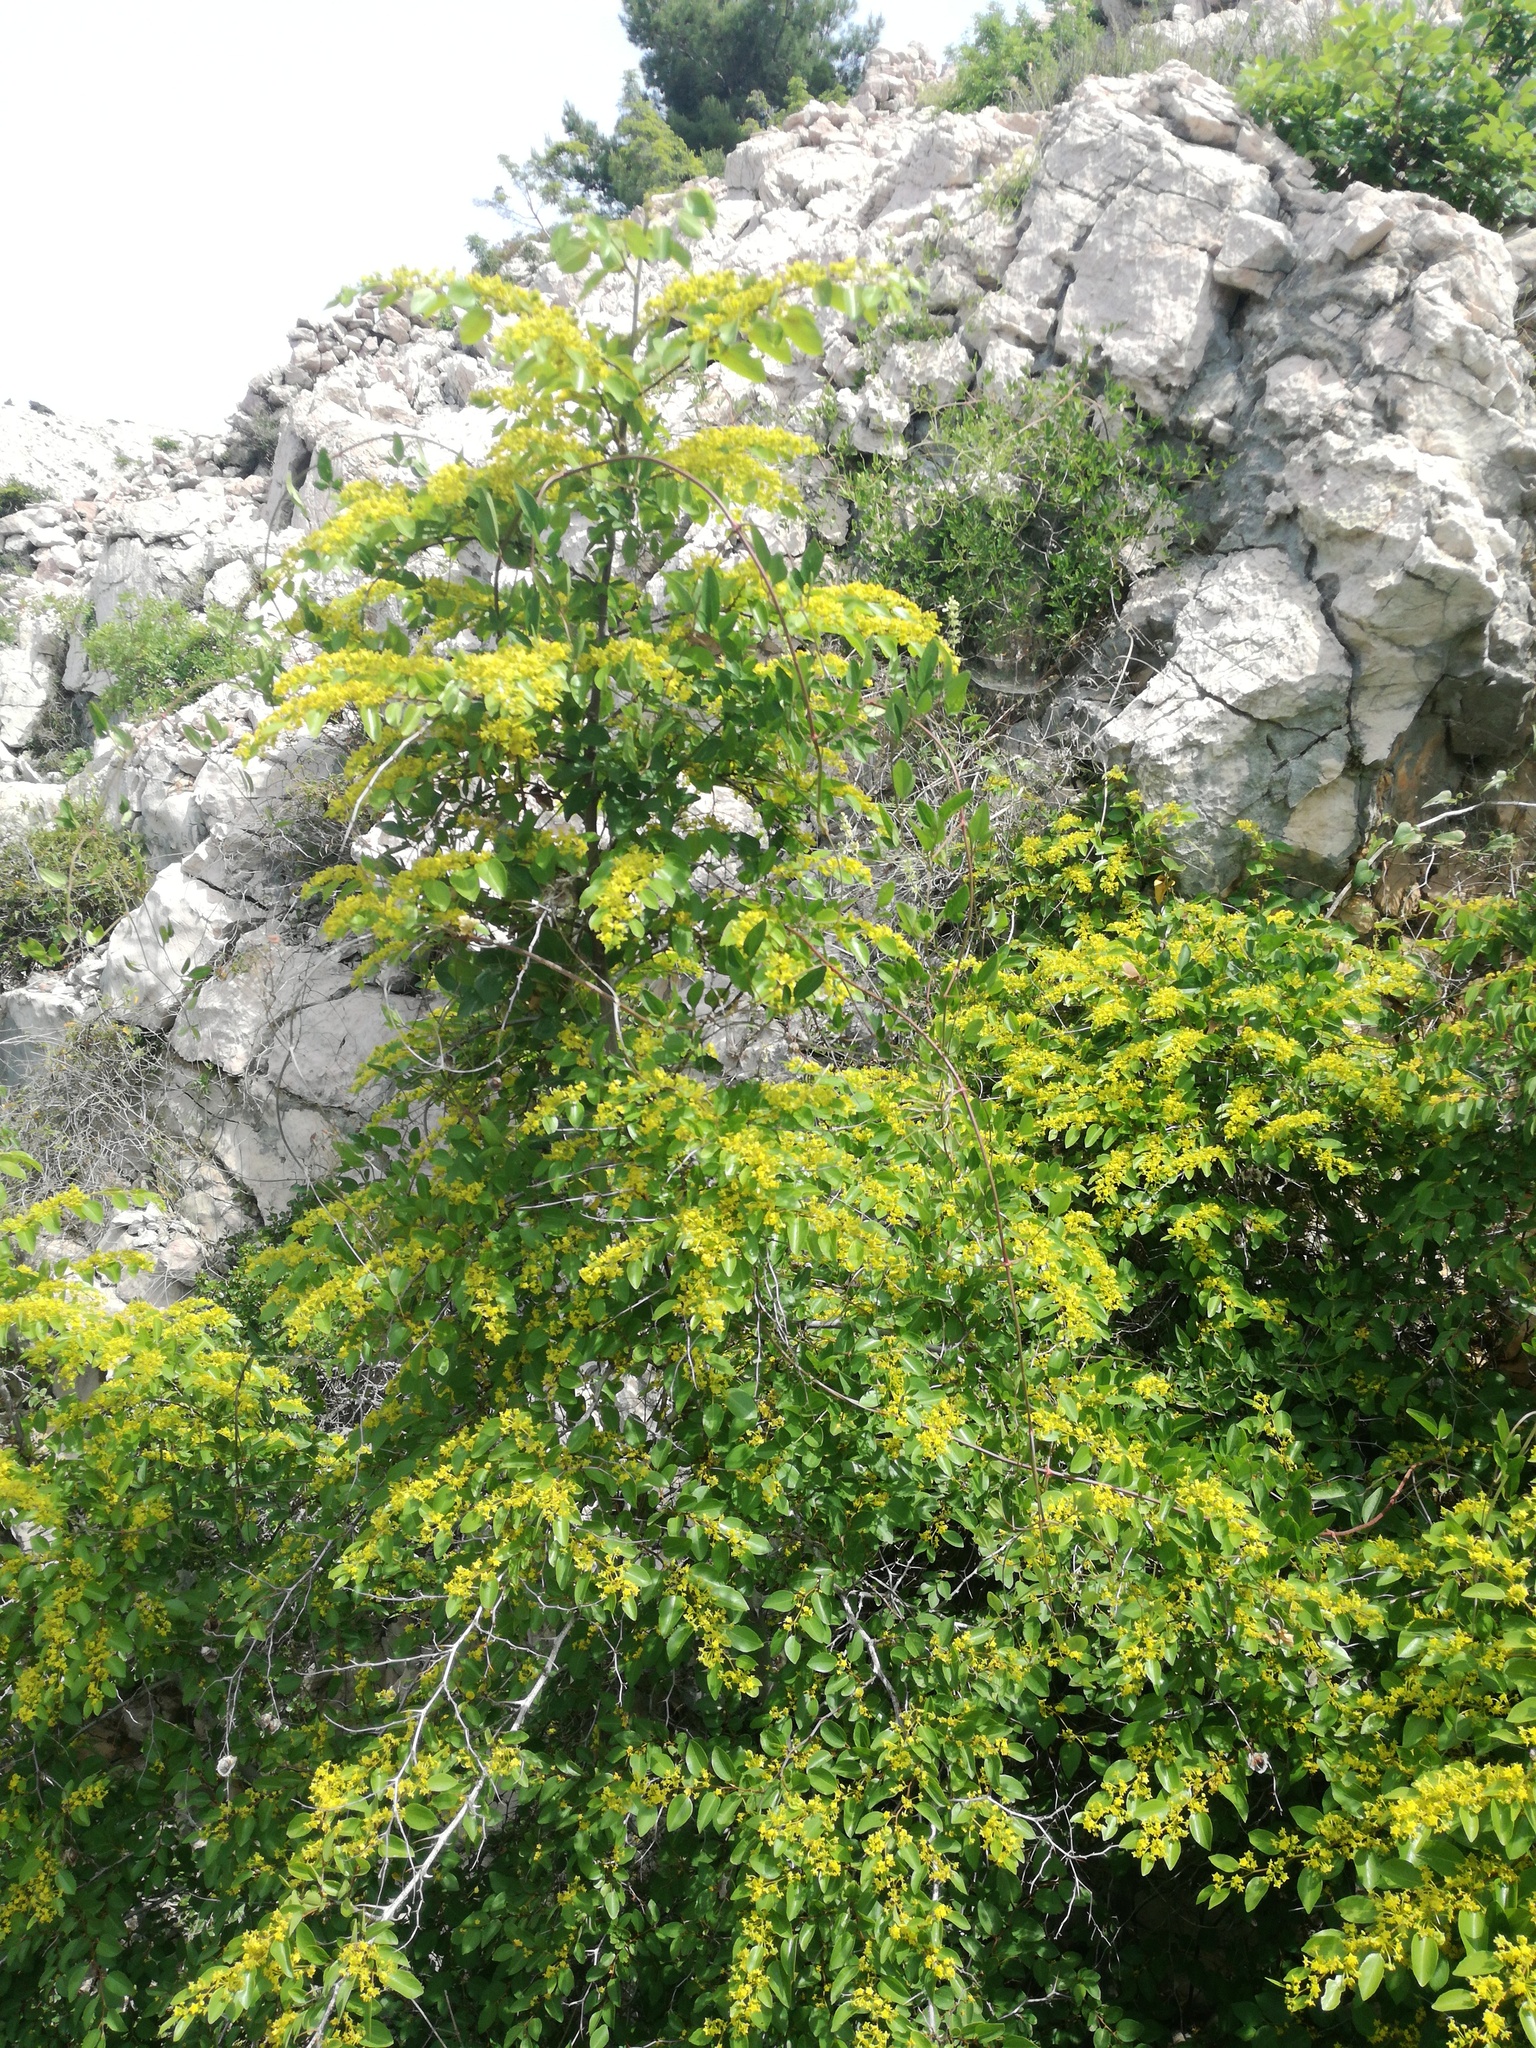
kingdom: Plantae
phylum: Tracheophyta
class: Magnoliopsida
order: Rosales
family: Rhamnaceae
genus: Paliurus
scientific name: Paliurus spina-christi
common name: Jeruselem thorn
